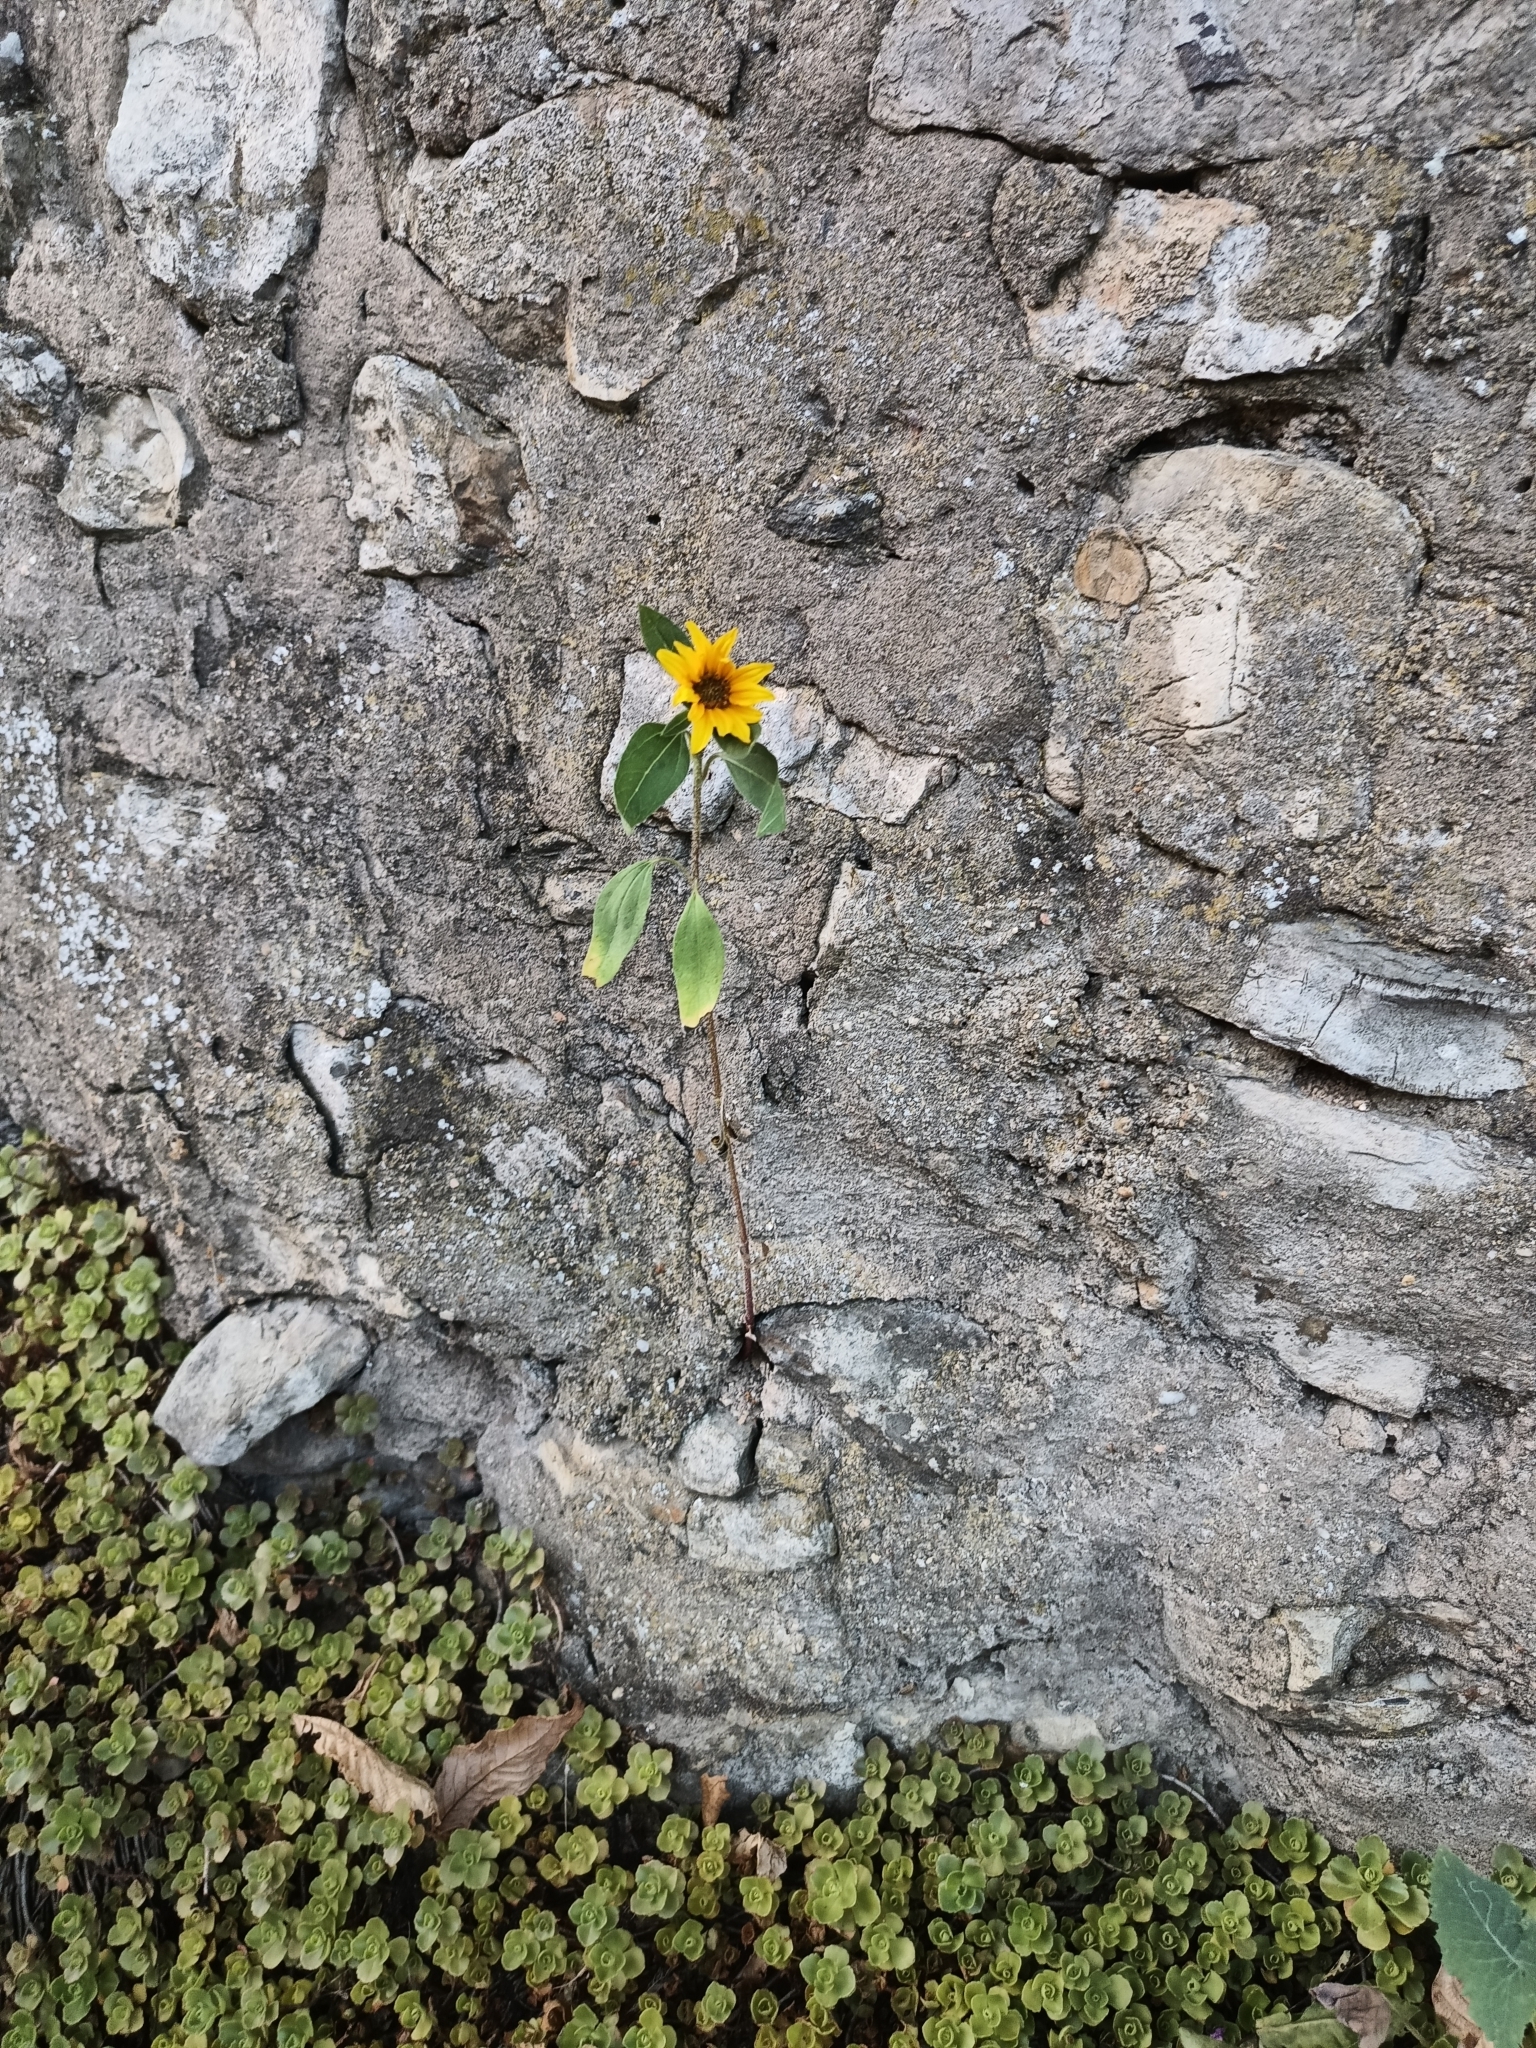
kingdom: Plantae
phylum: Tracheophyta
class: Magnoliopsida
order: Asterales
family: Asteraceae
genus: Helianthus
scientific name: Helianthus annuus
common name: Sunflower
